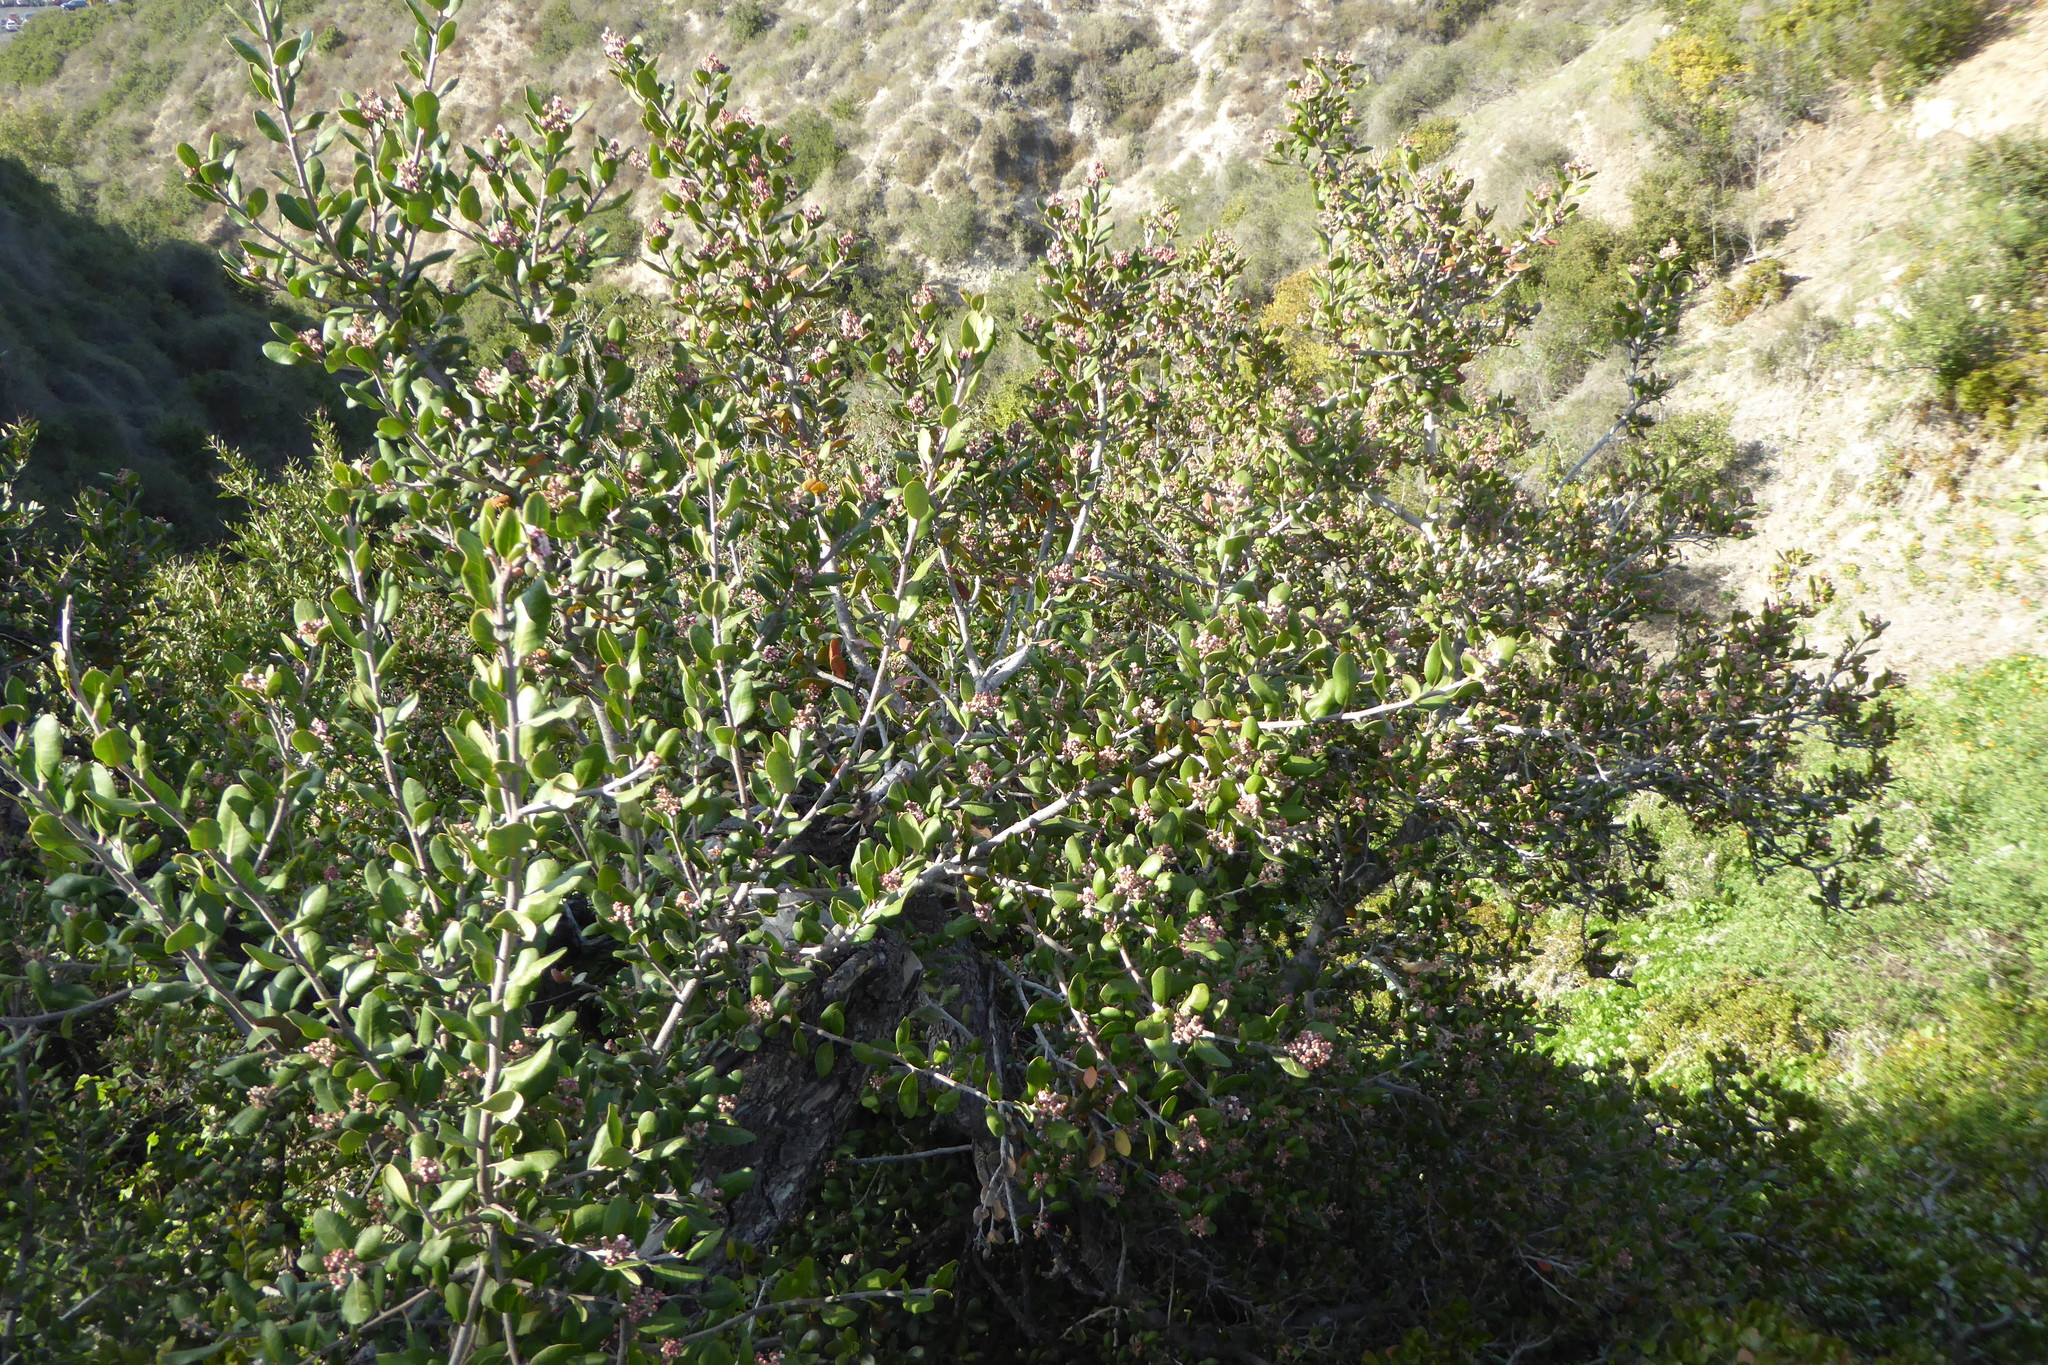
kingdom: Plantae
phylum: Tracheophyta
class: Magnoliopsida
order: Sapindales
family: Anacardiaceae
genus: Rhus
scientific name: Rhus integrifolia
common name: Lemonade sumac
